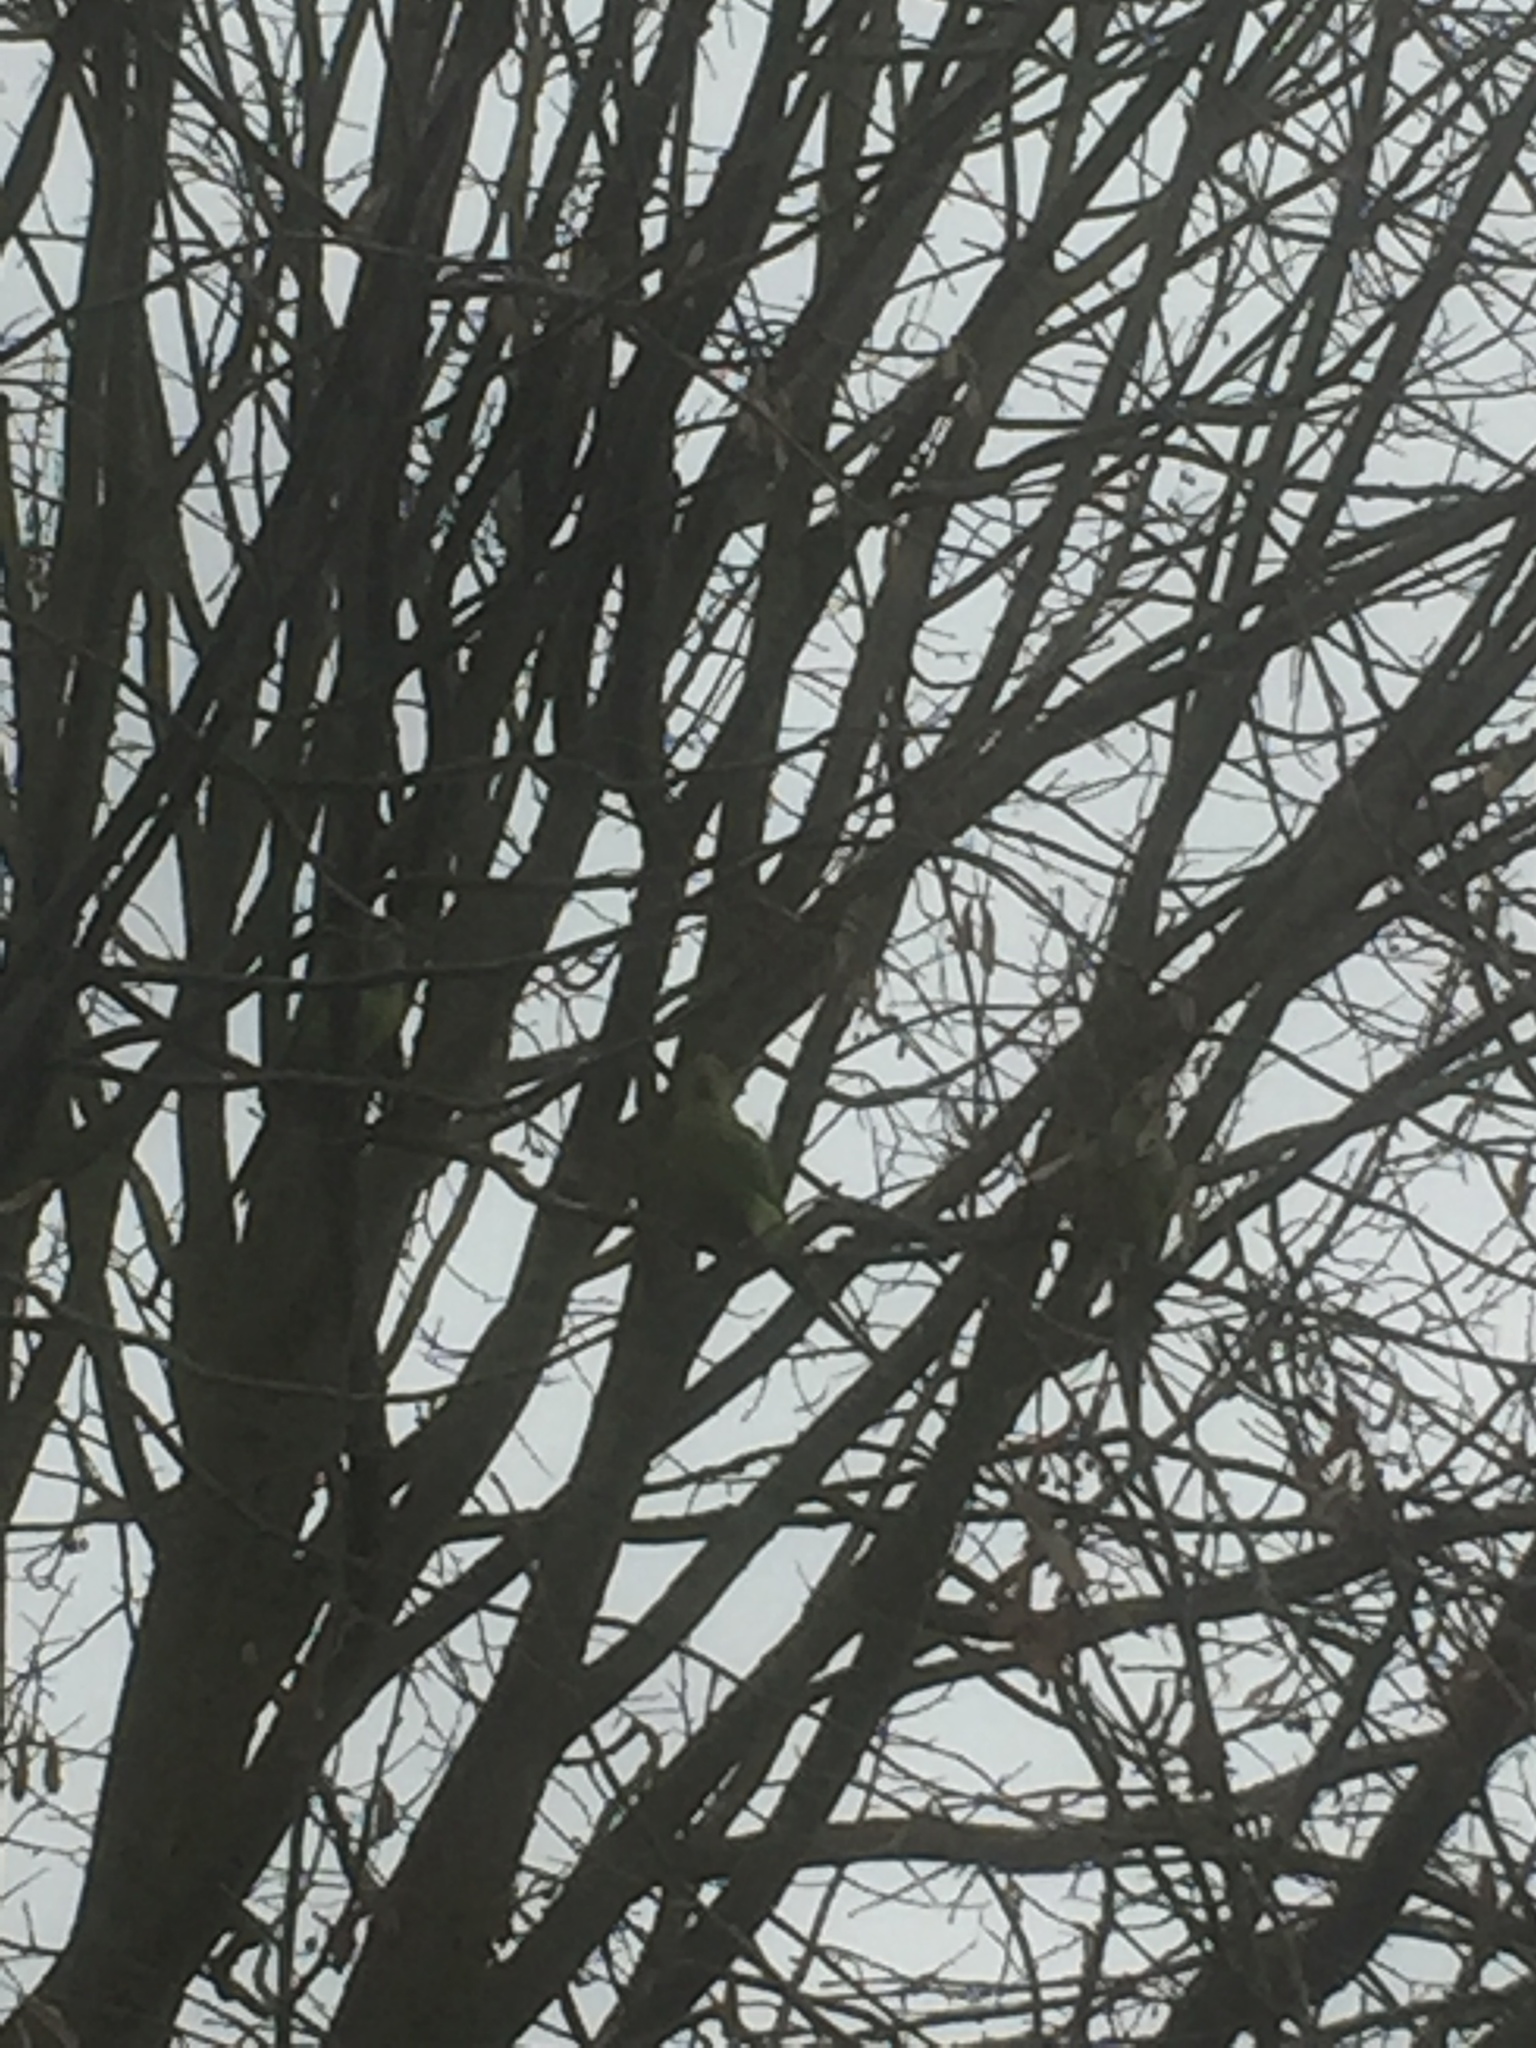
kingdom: Animalia
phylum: Chordata
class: Aves
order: Psittaciformes
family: Psittacidae
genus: Psittacula
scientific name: Psittacula krameri
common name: Rose-ringed parakeet
